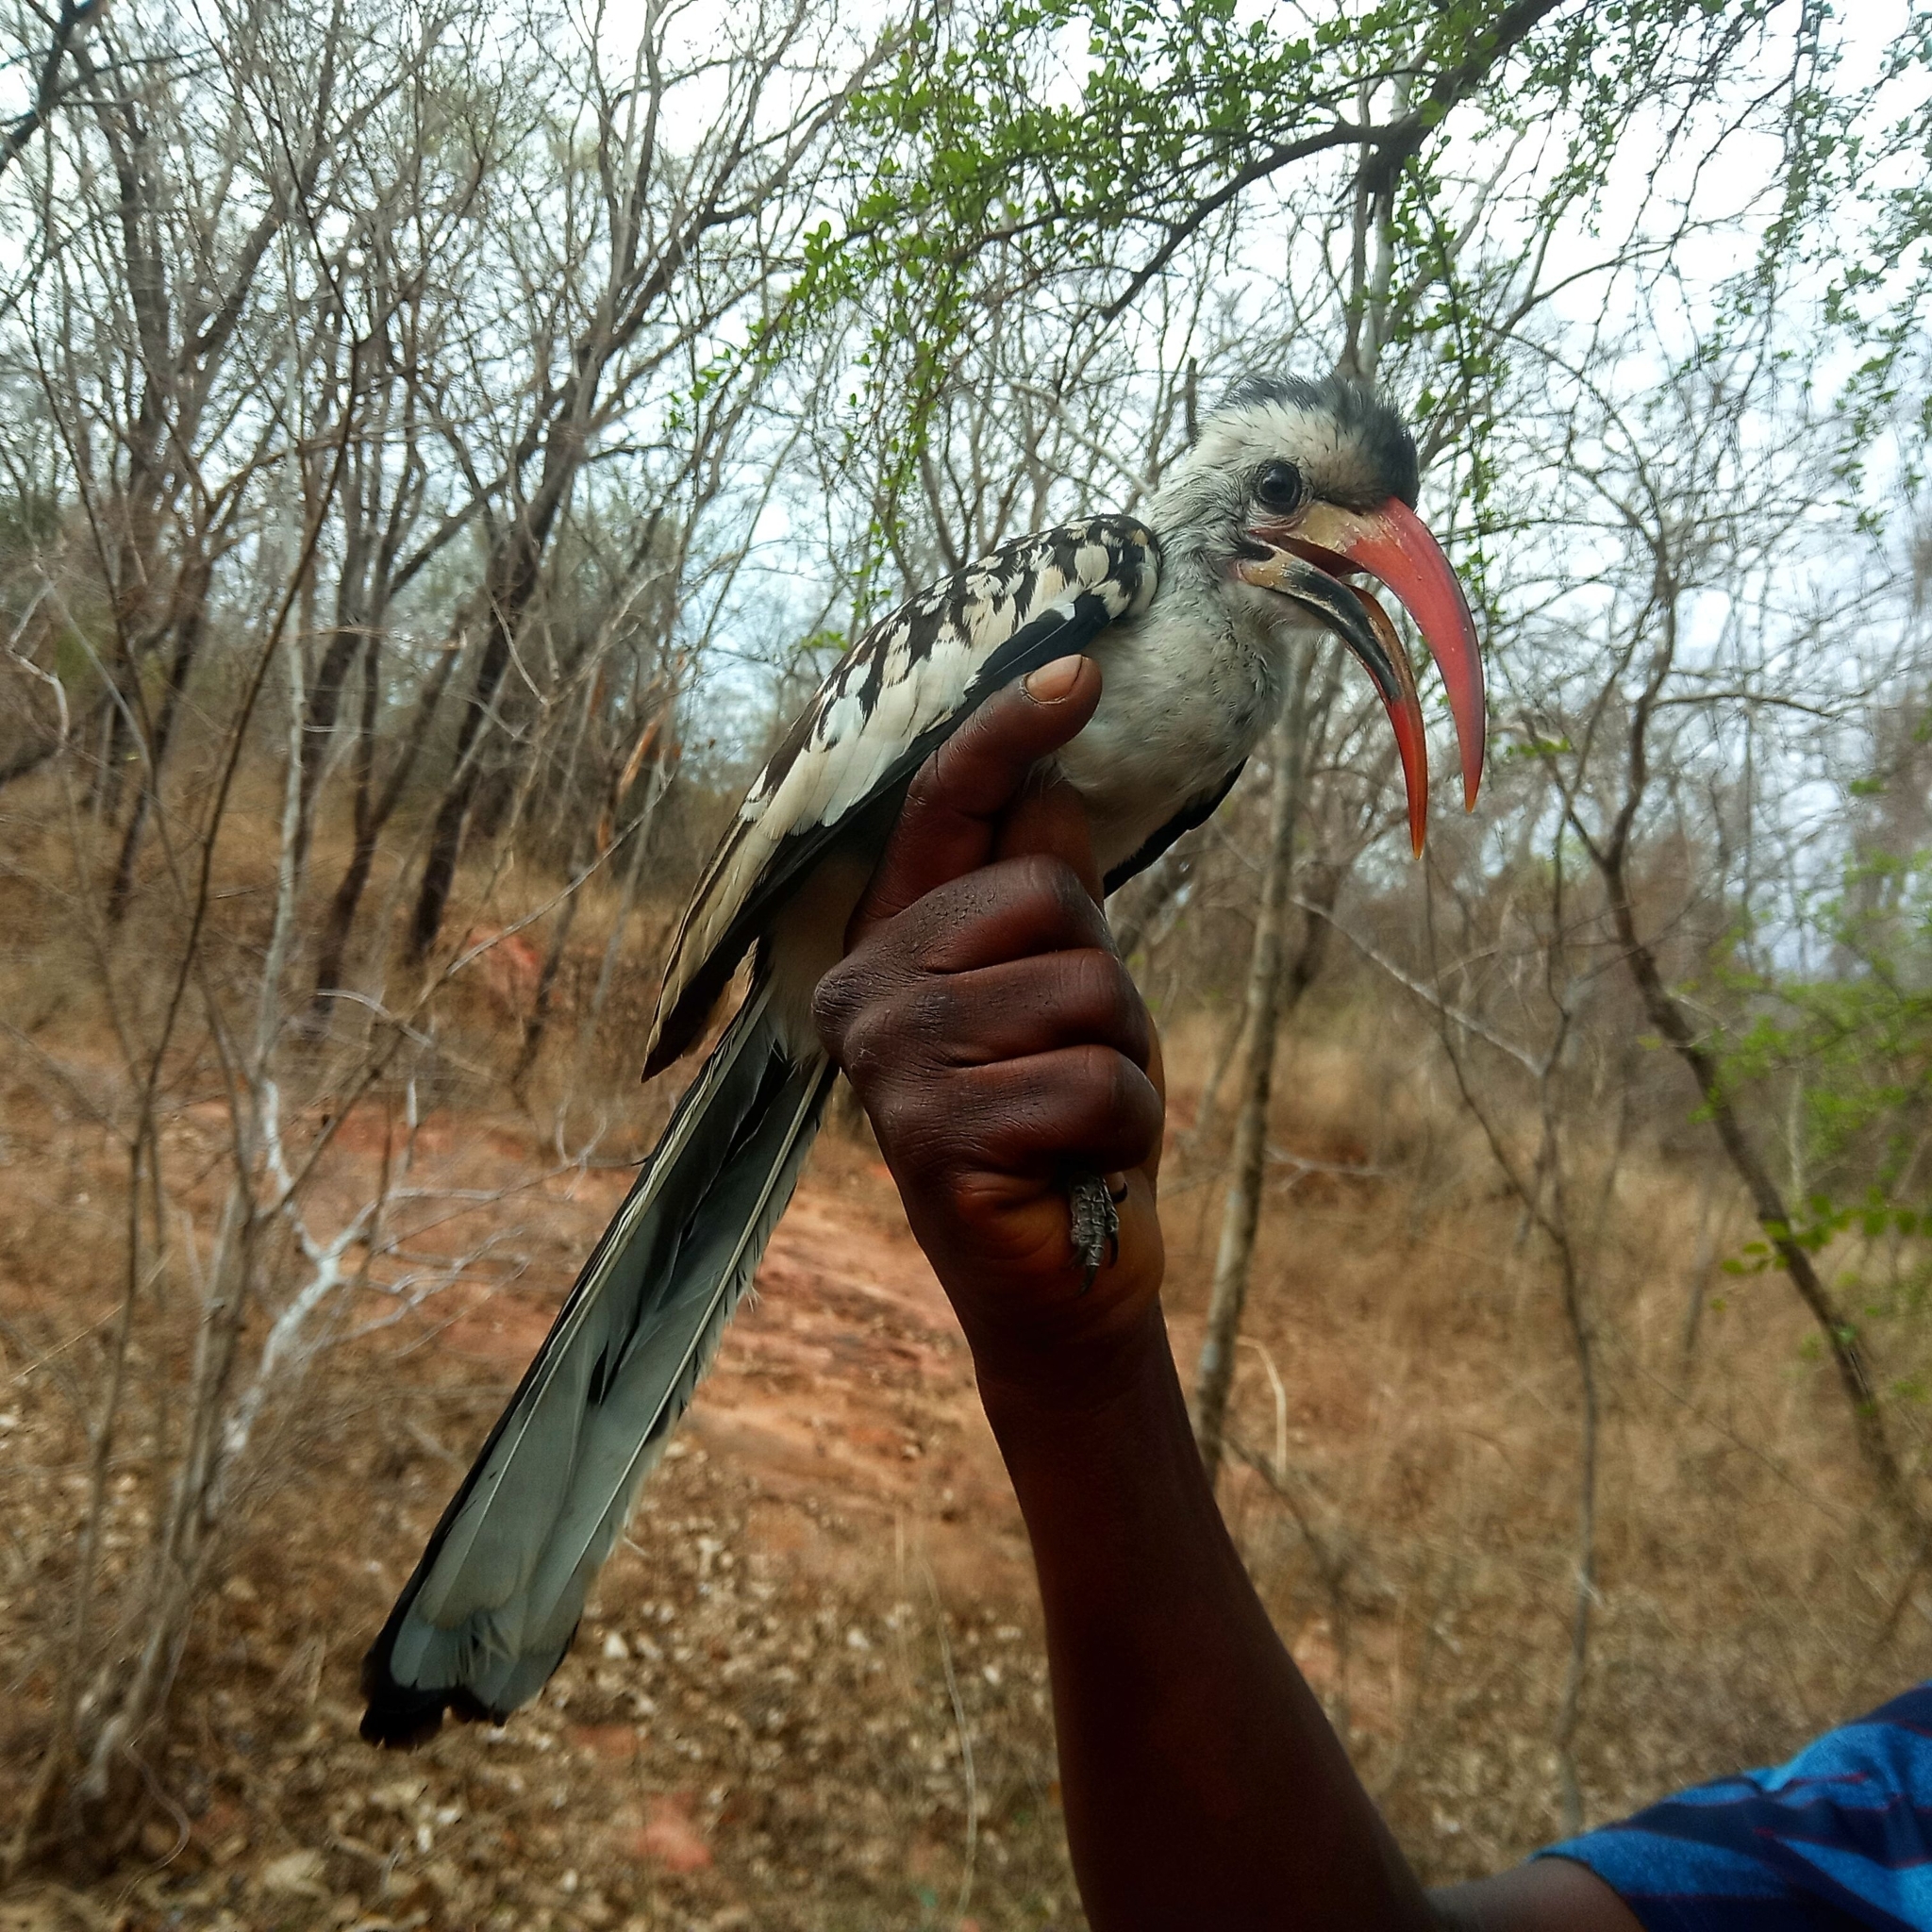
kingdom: Animalia
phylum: Chordata
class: Aves
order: Bucerotiformes
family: Bucerotidae
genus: Tockus
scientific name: Tockus erythrorhynchus
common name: Northern red-billed hornbill
